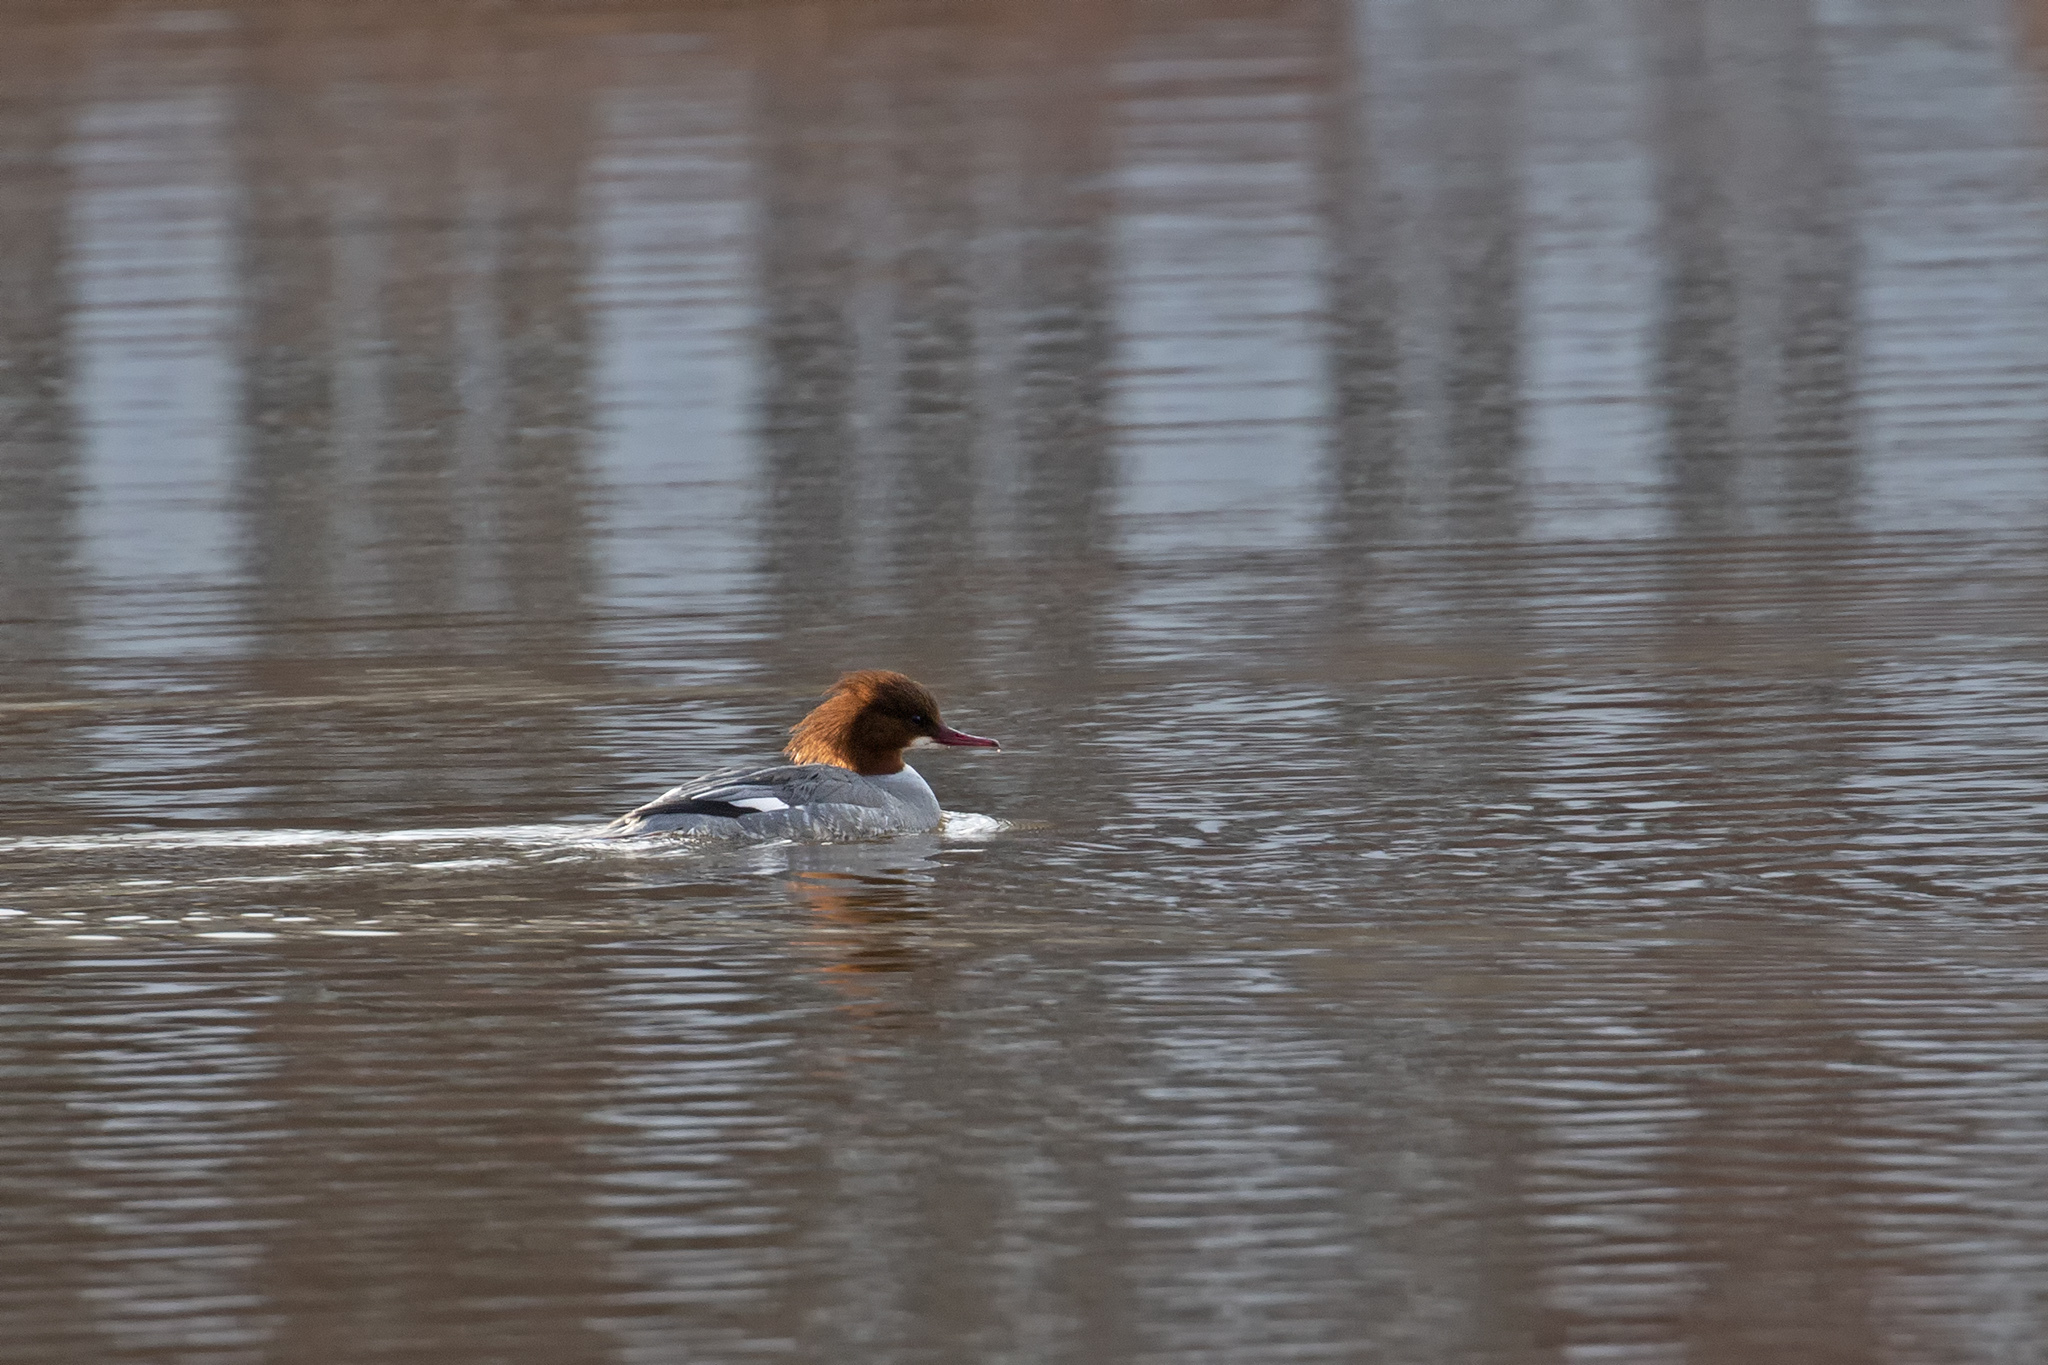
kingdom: Animalia
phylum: Chordata
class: Aves
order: Anseriformes
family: Anatidae
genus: Mergus
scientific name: Mergus merganser
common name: Common merganser
